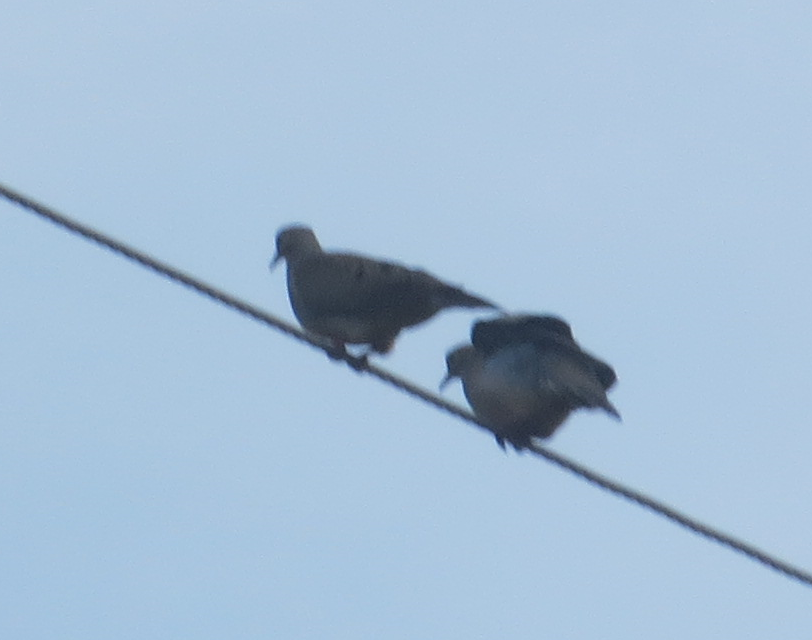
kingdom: Animalia
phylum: Chordata
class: Aves
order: Columbiformes
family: Columbidae
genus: Zenaida
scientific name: Zenaida macroura
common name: Mourning dove
